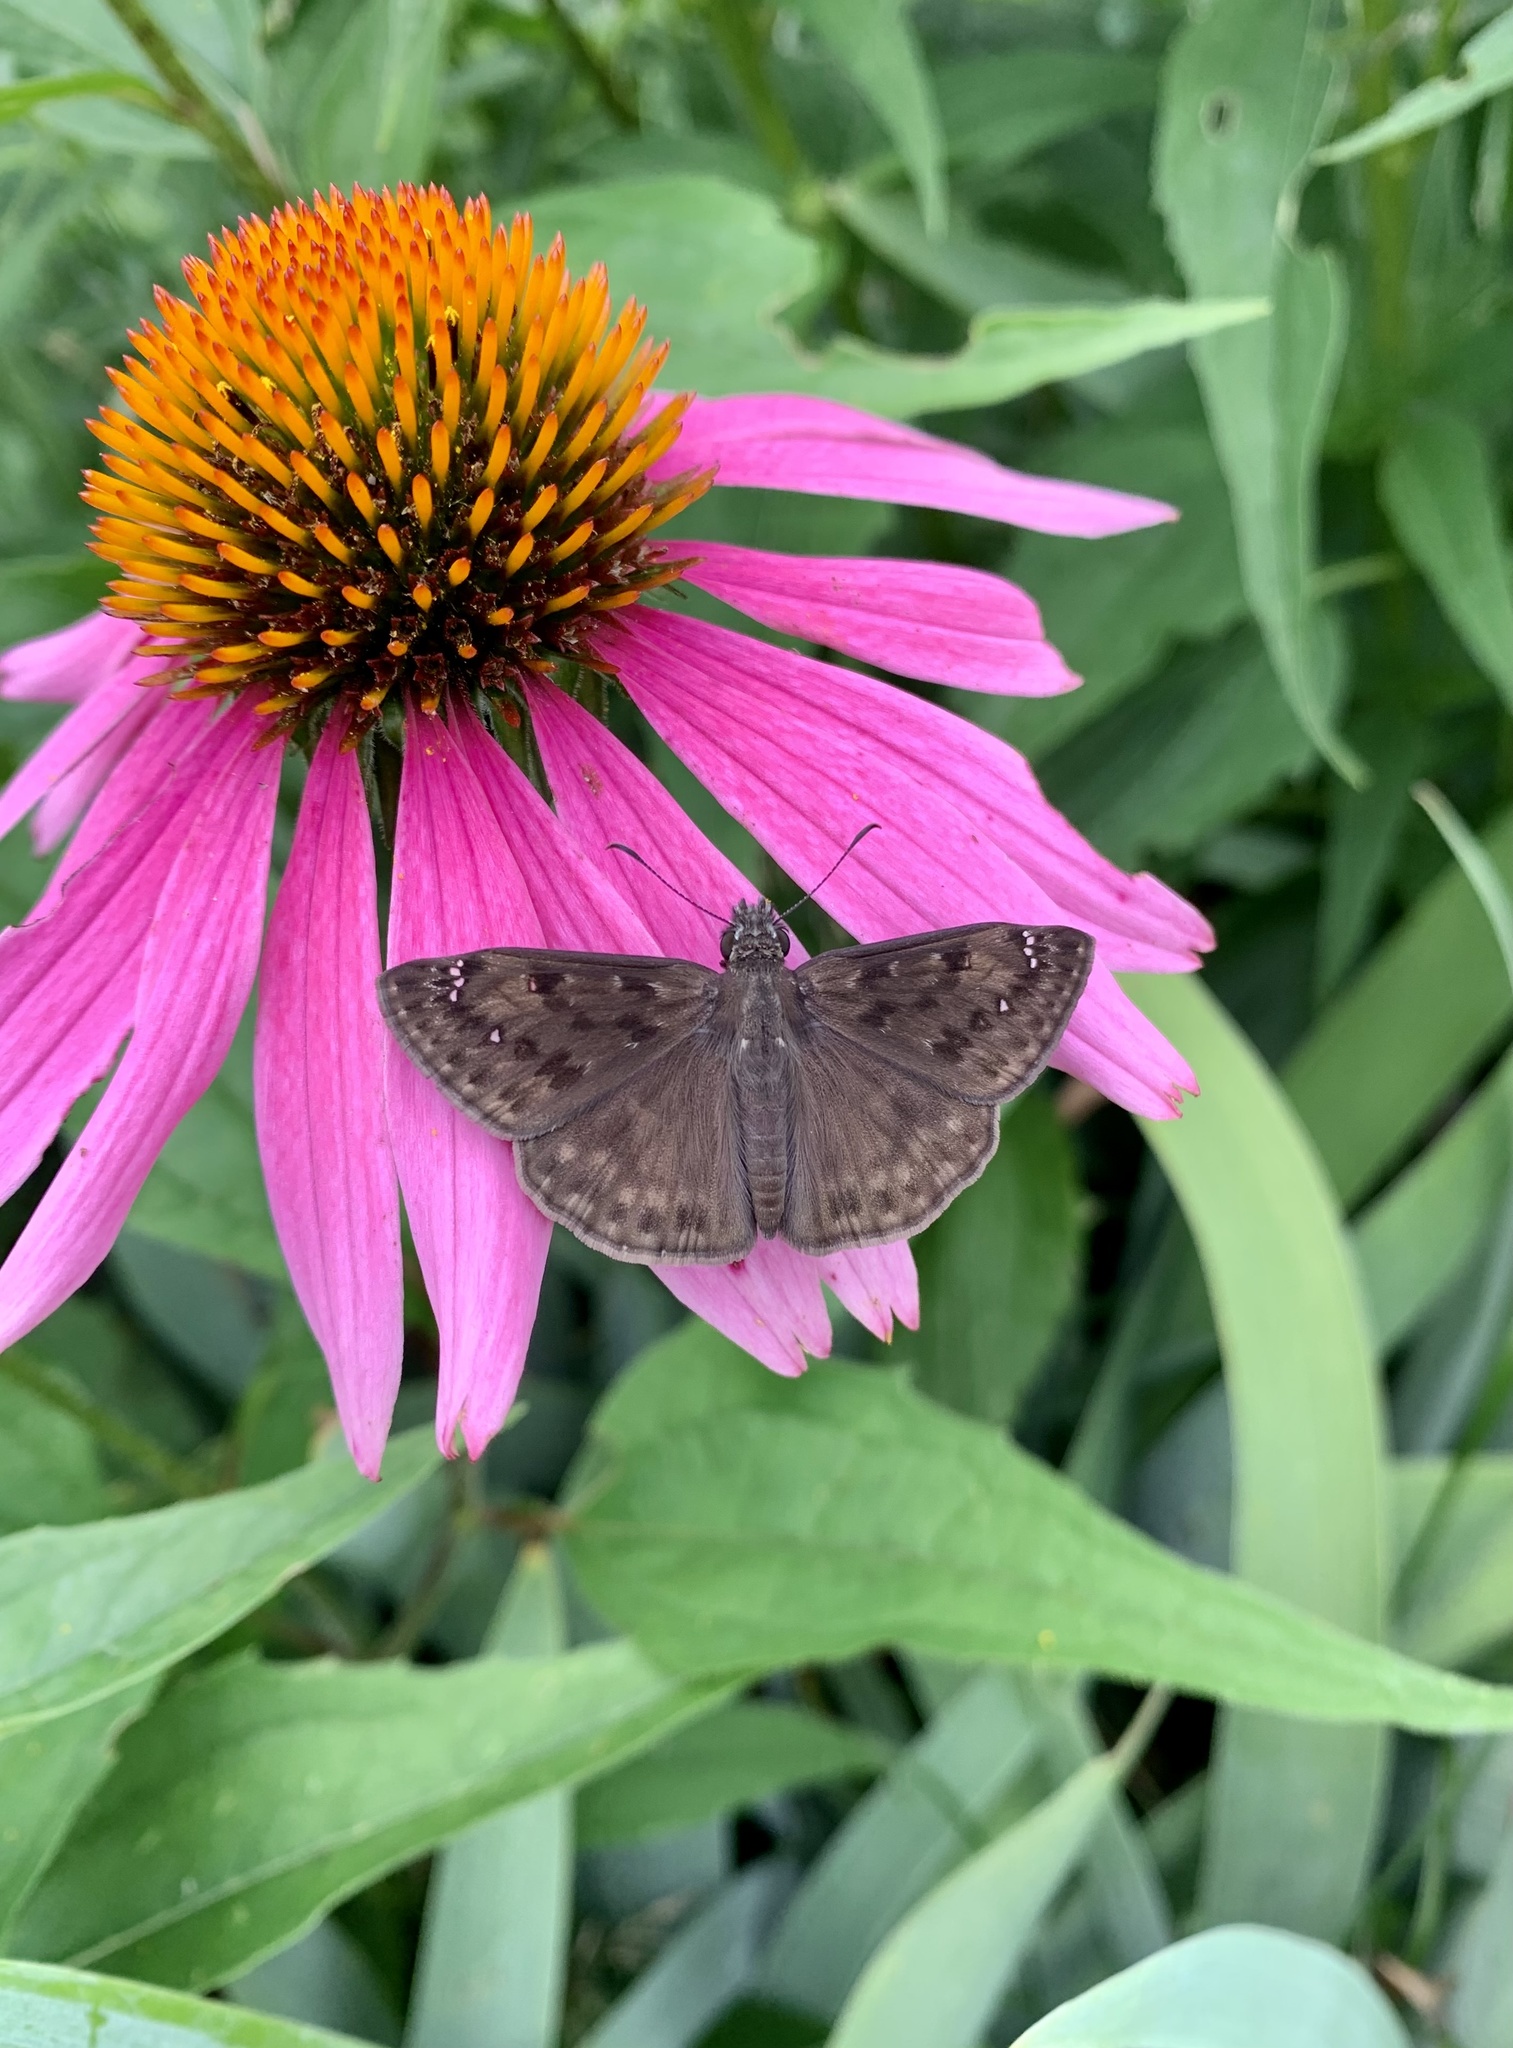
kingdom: Animalia
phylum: Arthropoda
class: Insecta
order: Lepidoptera
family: Hesperiidae
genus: Erynnis
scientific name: Erynnis horatius
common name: Horace's duskywing
